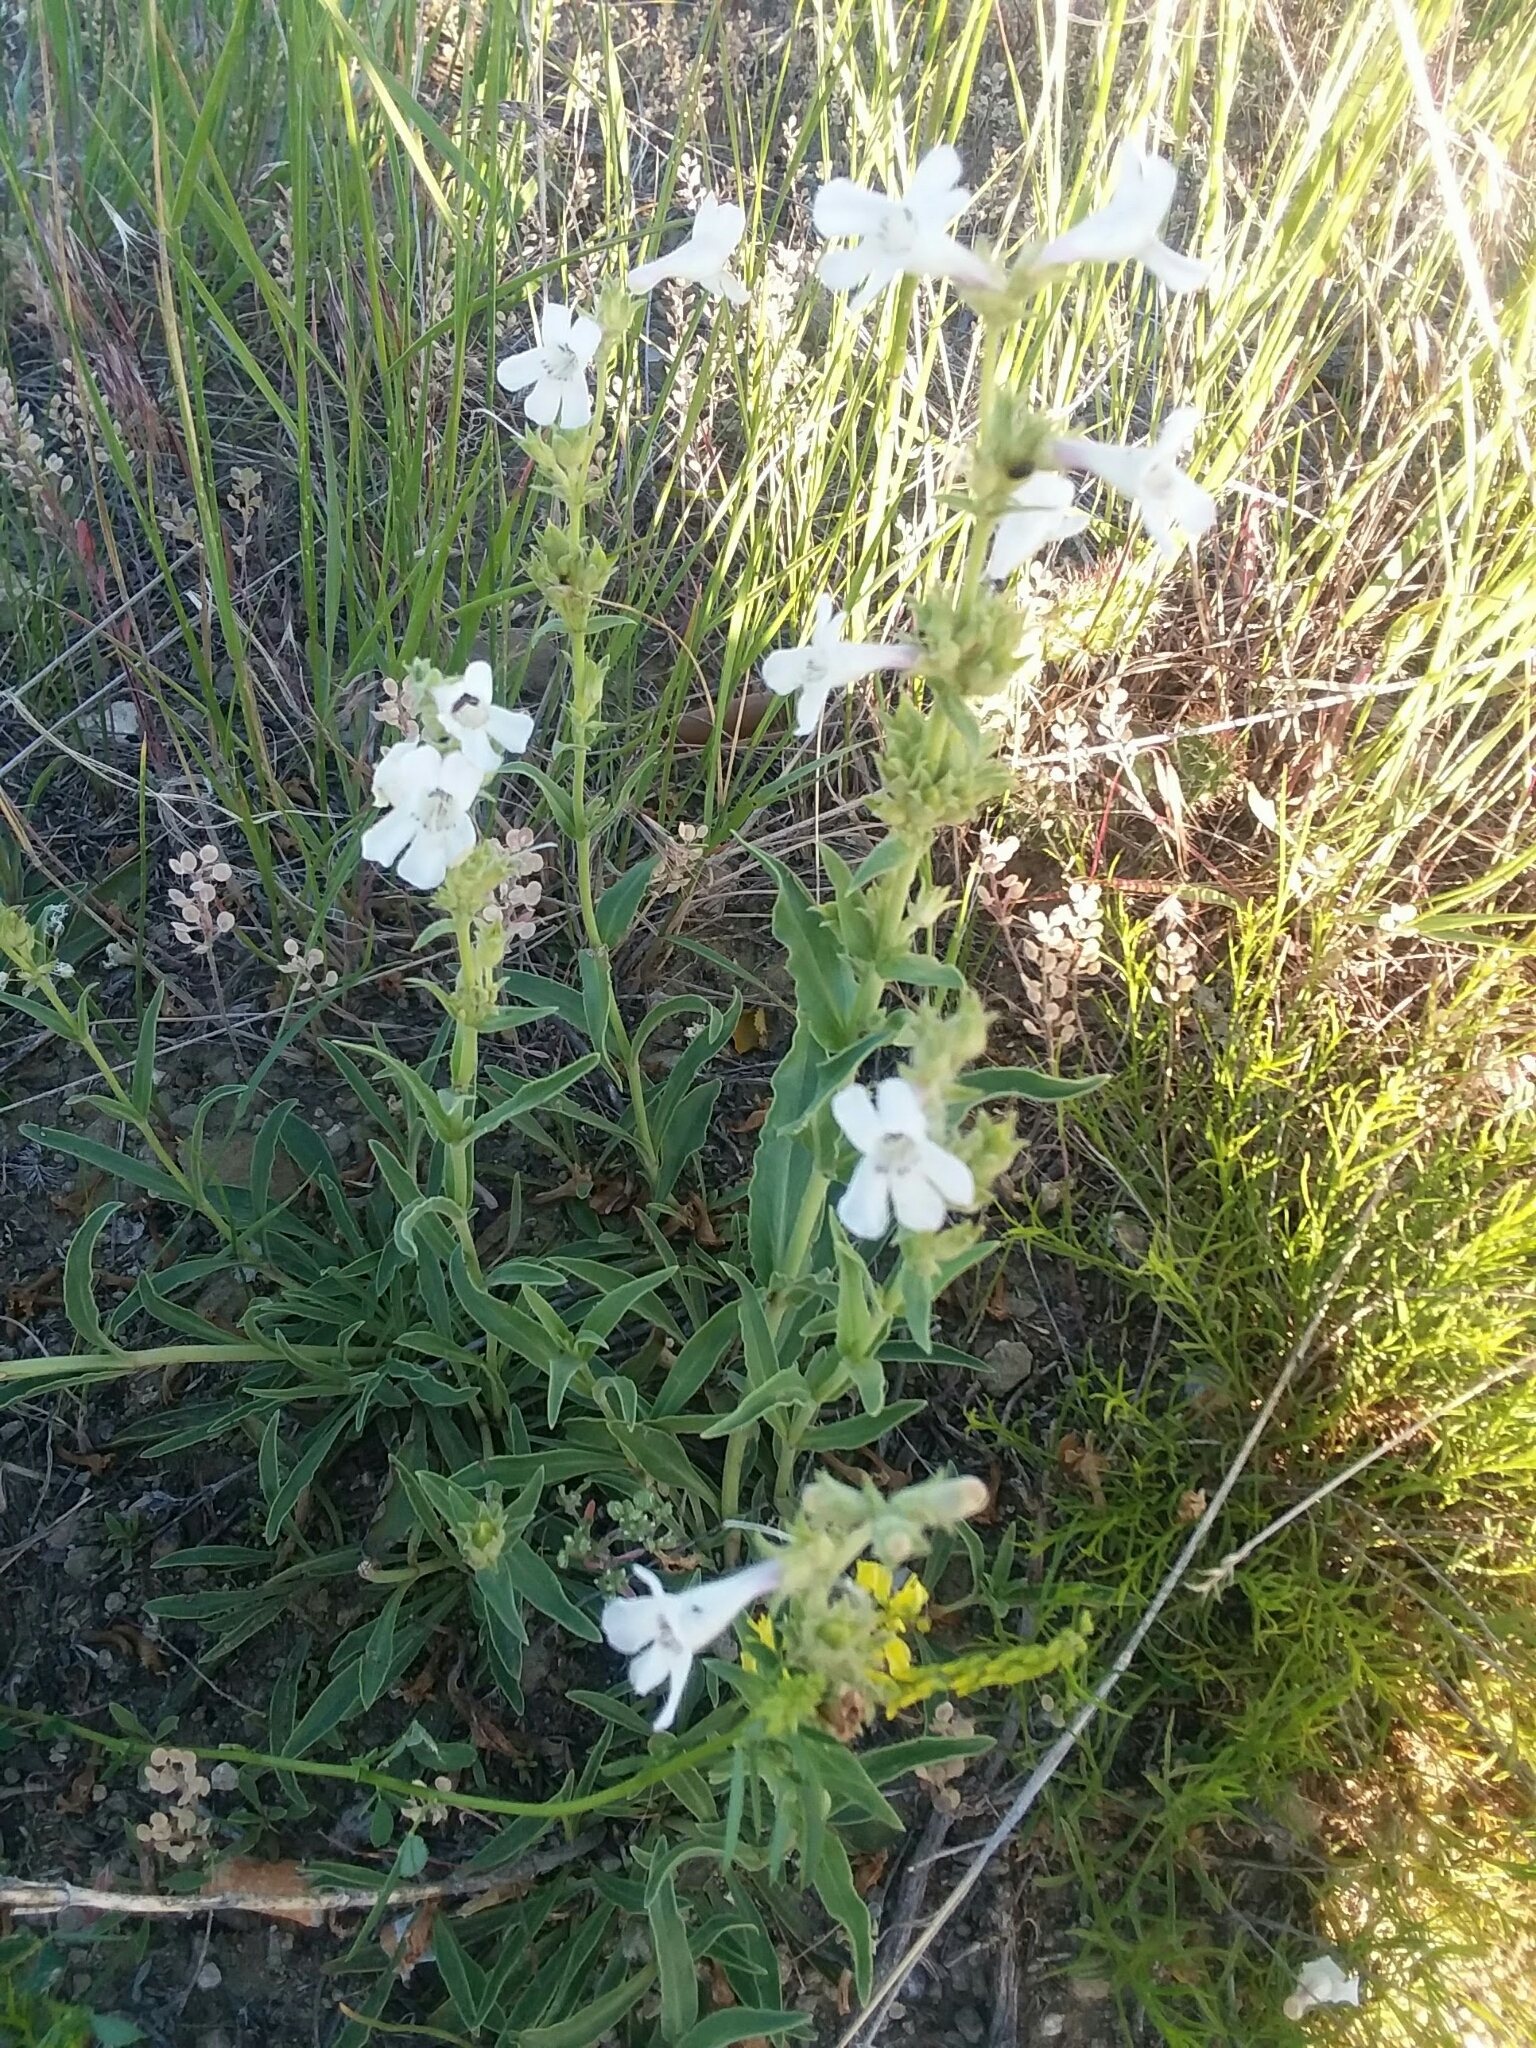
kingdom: Plantae
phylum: Tracheophyta
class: Magnoliopsida
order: Lamiales
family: Plantaginaceae
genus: Penstemon
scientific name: Penstemon albidus
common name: White beardtongue
